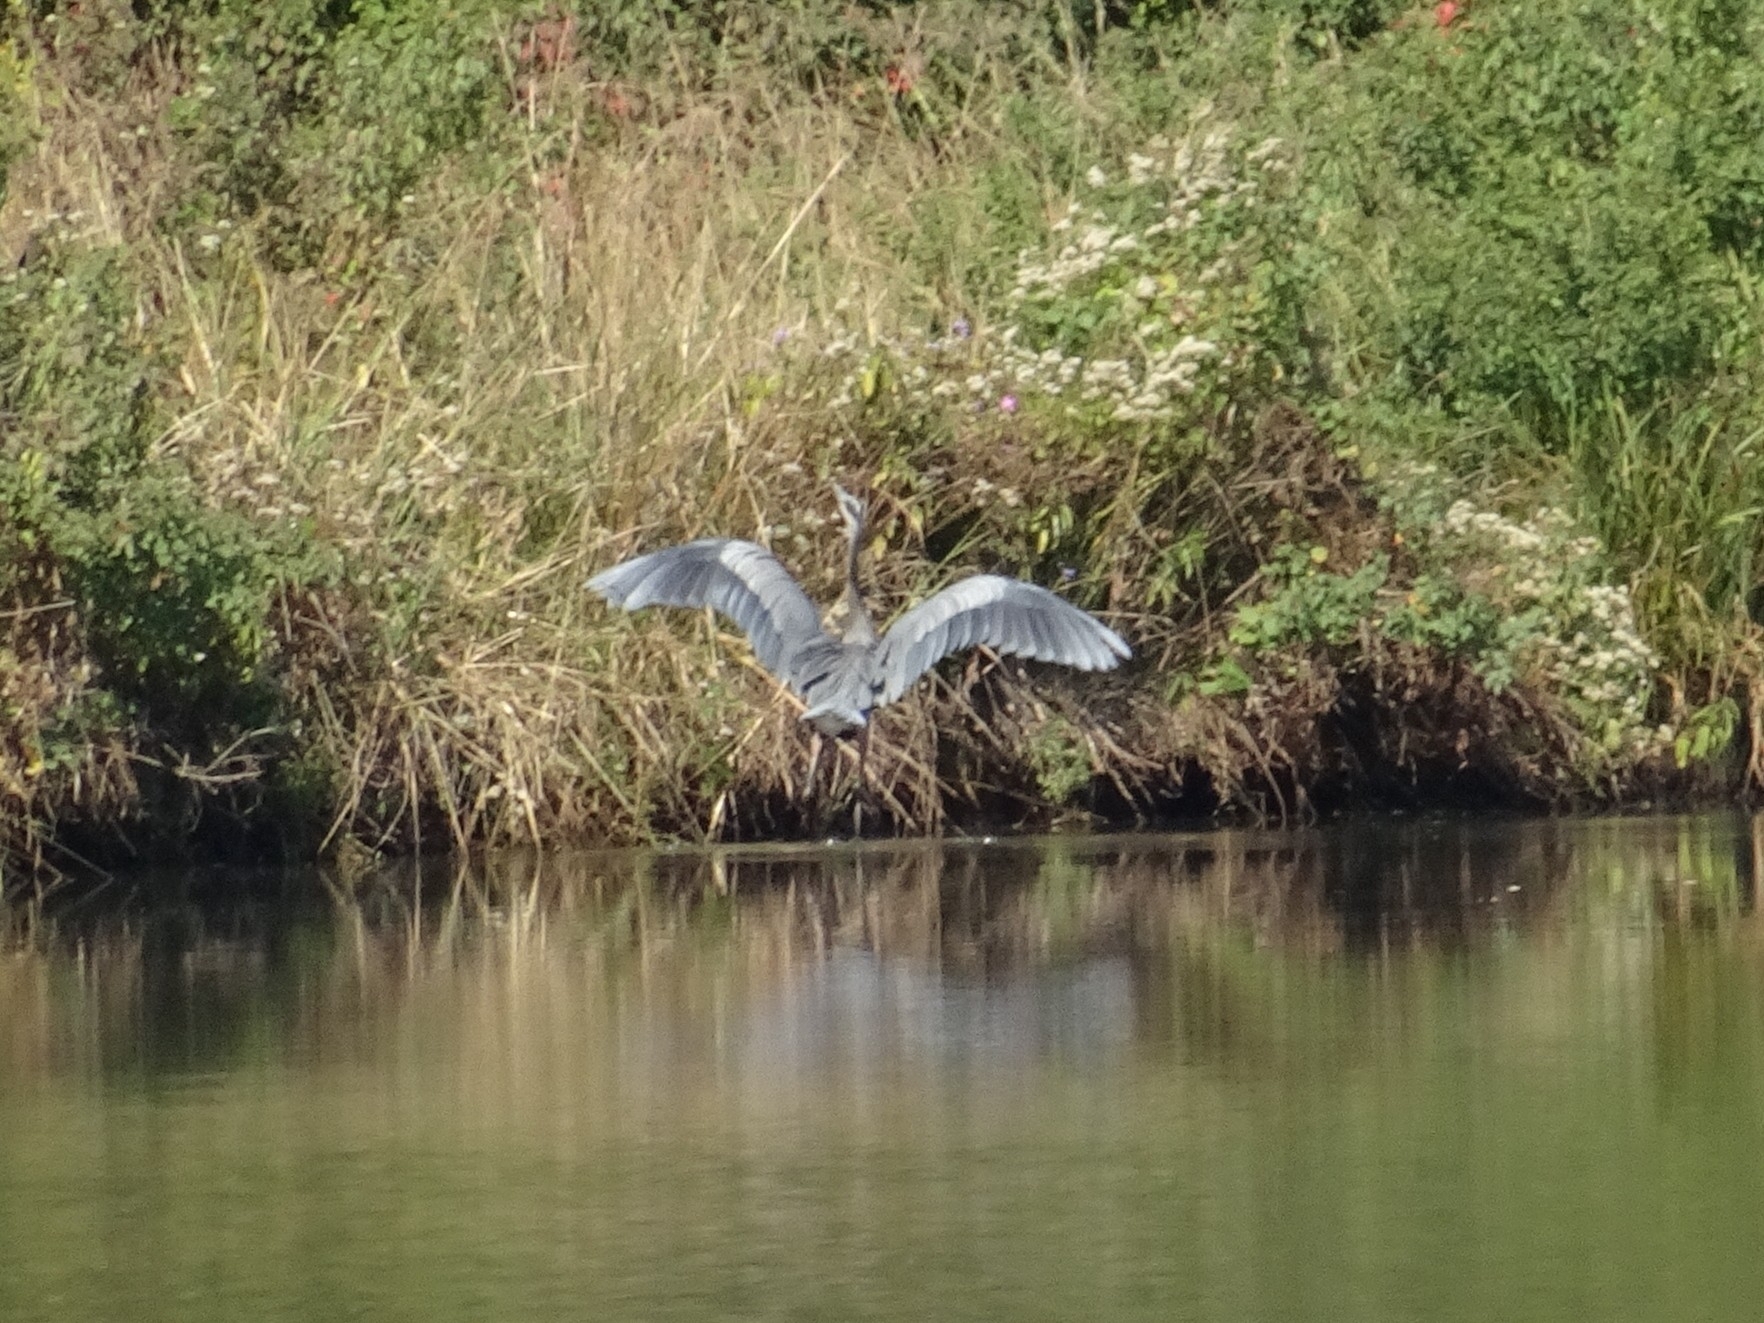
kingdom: Animalia
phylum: Chordata
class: Aves
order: Pelecaniformes
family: Ardeidae
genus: Ardea
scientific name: Ardea herodias
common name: Great blue heron
